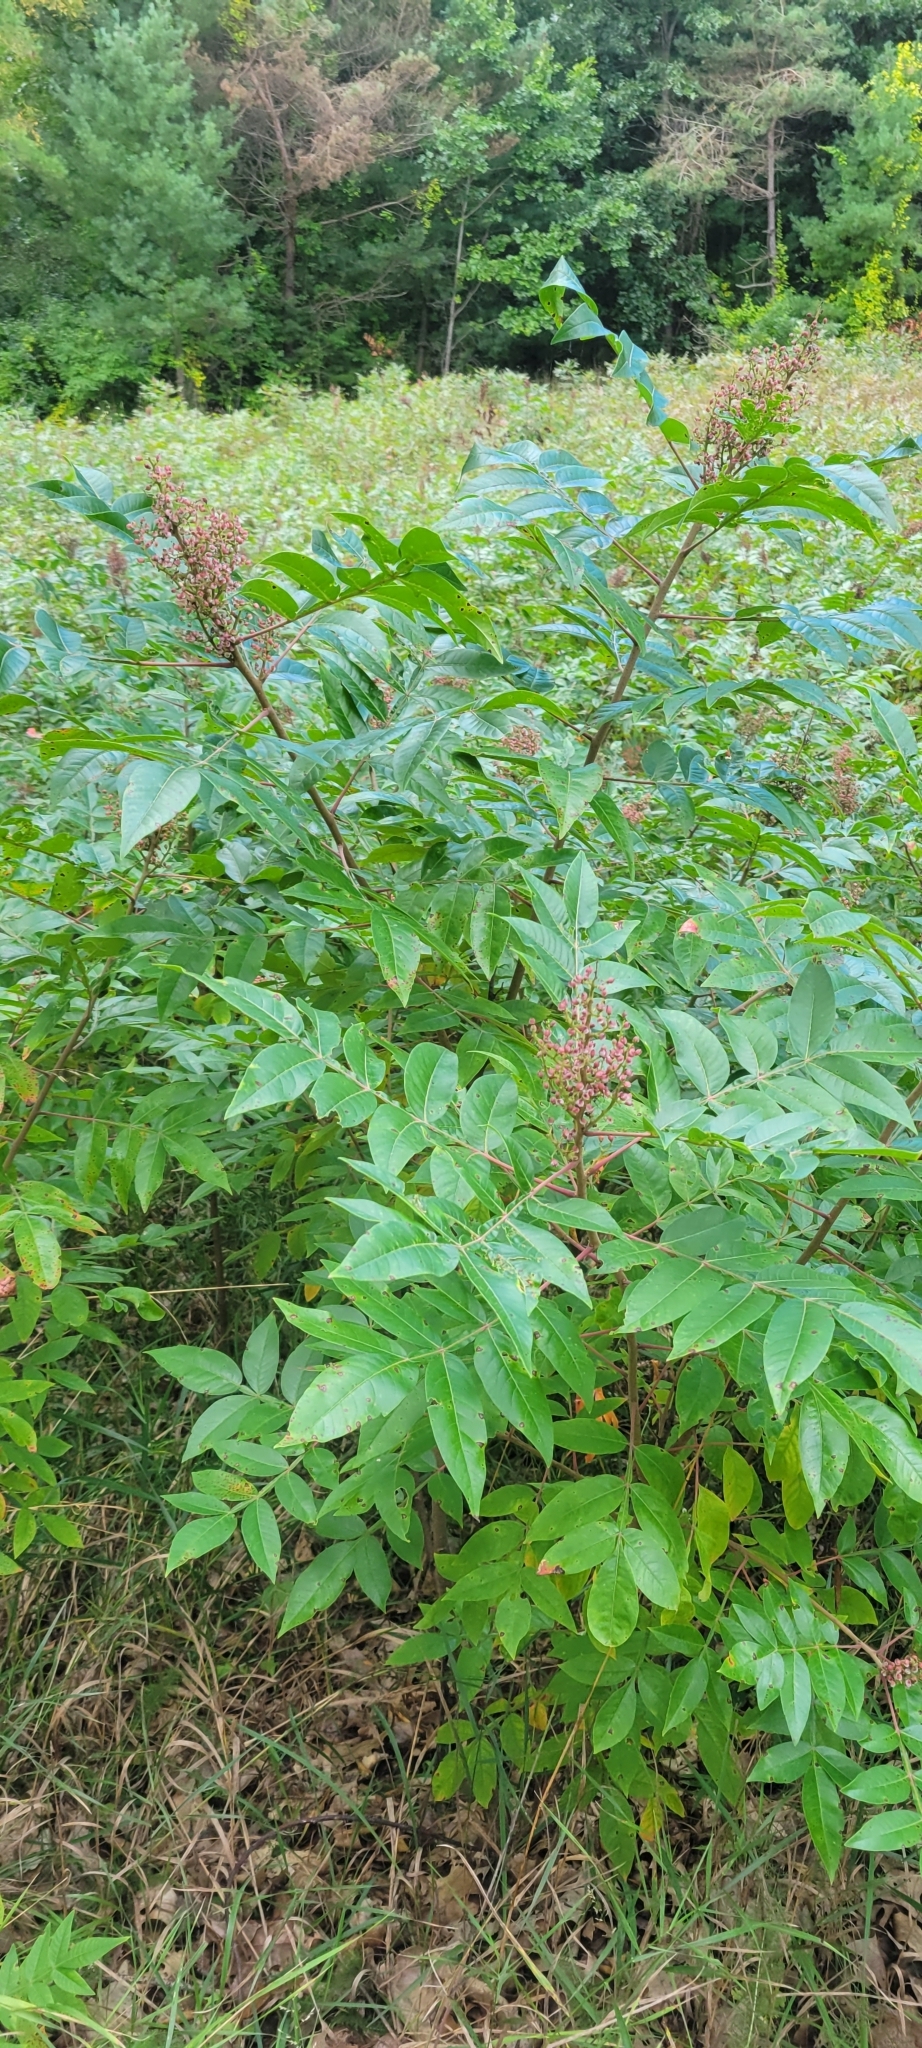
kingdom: Plantae
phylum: Tracheophyta
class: Magnoliopsida
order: Sapindales
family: Anacardiaceae
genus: Rhus
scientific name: Rhus copallina
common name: Shining sumac
